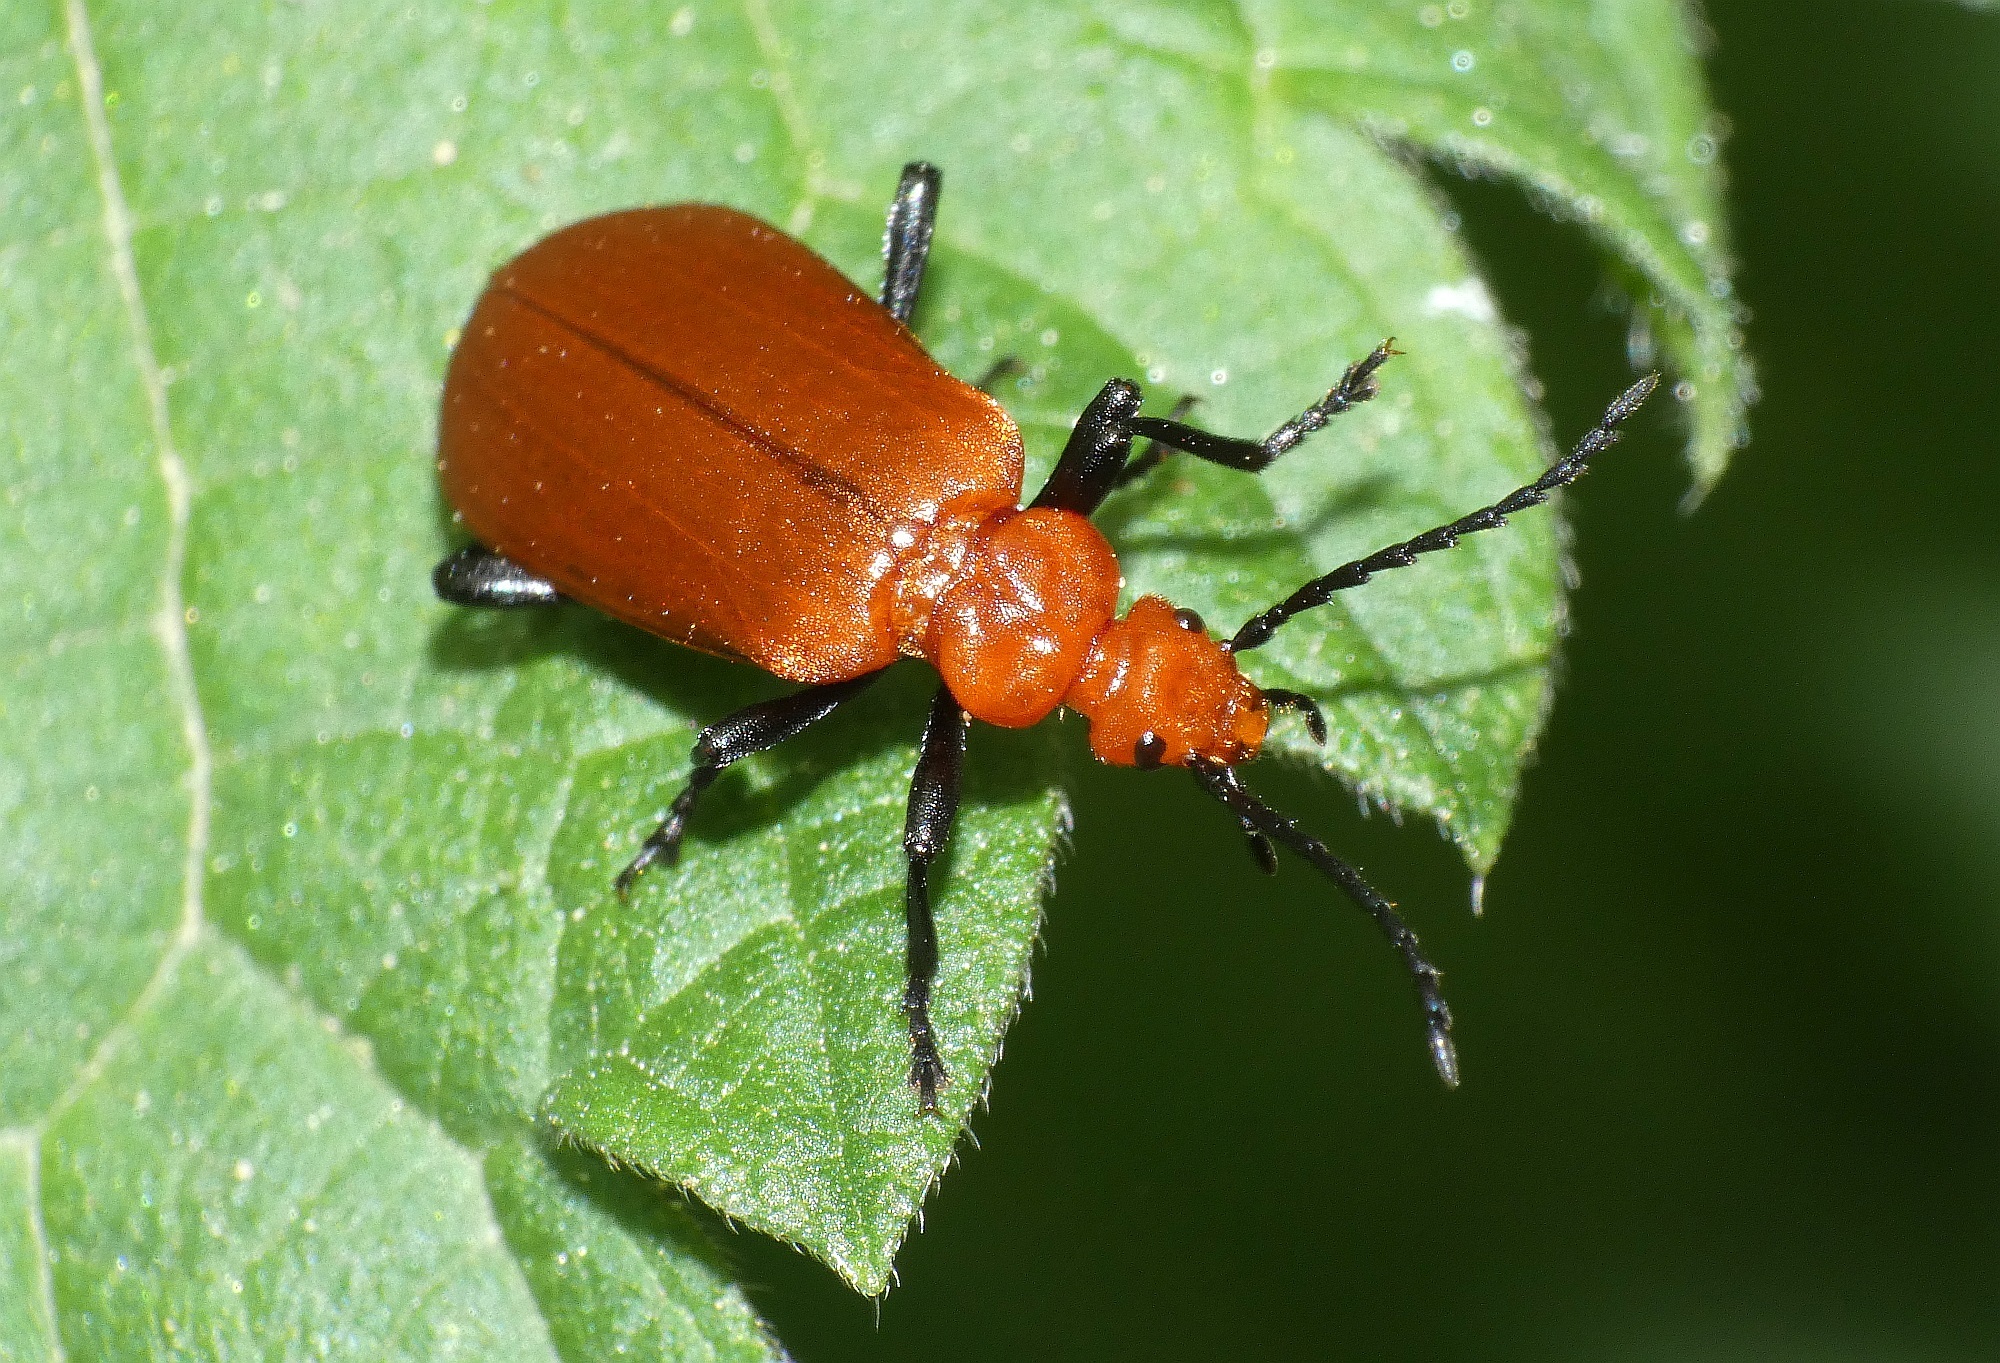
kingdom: Animalia
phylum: Arthropoda
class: Insecta
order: Coleoptera
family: Pyrochroidae
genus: Pyrochroa
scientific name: Pyrochroa serraticornis
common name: Red-headed cardinal beetle
